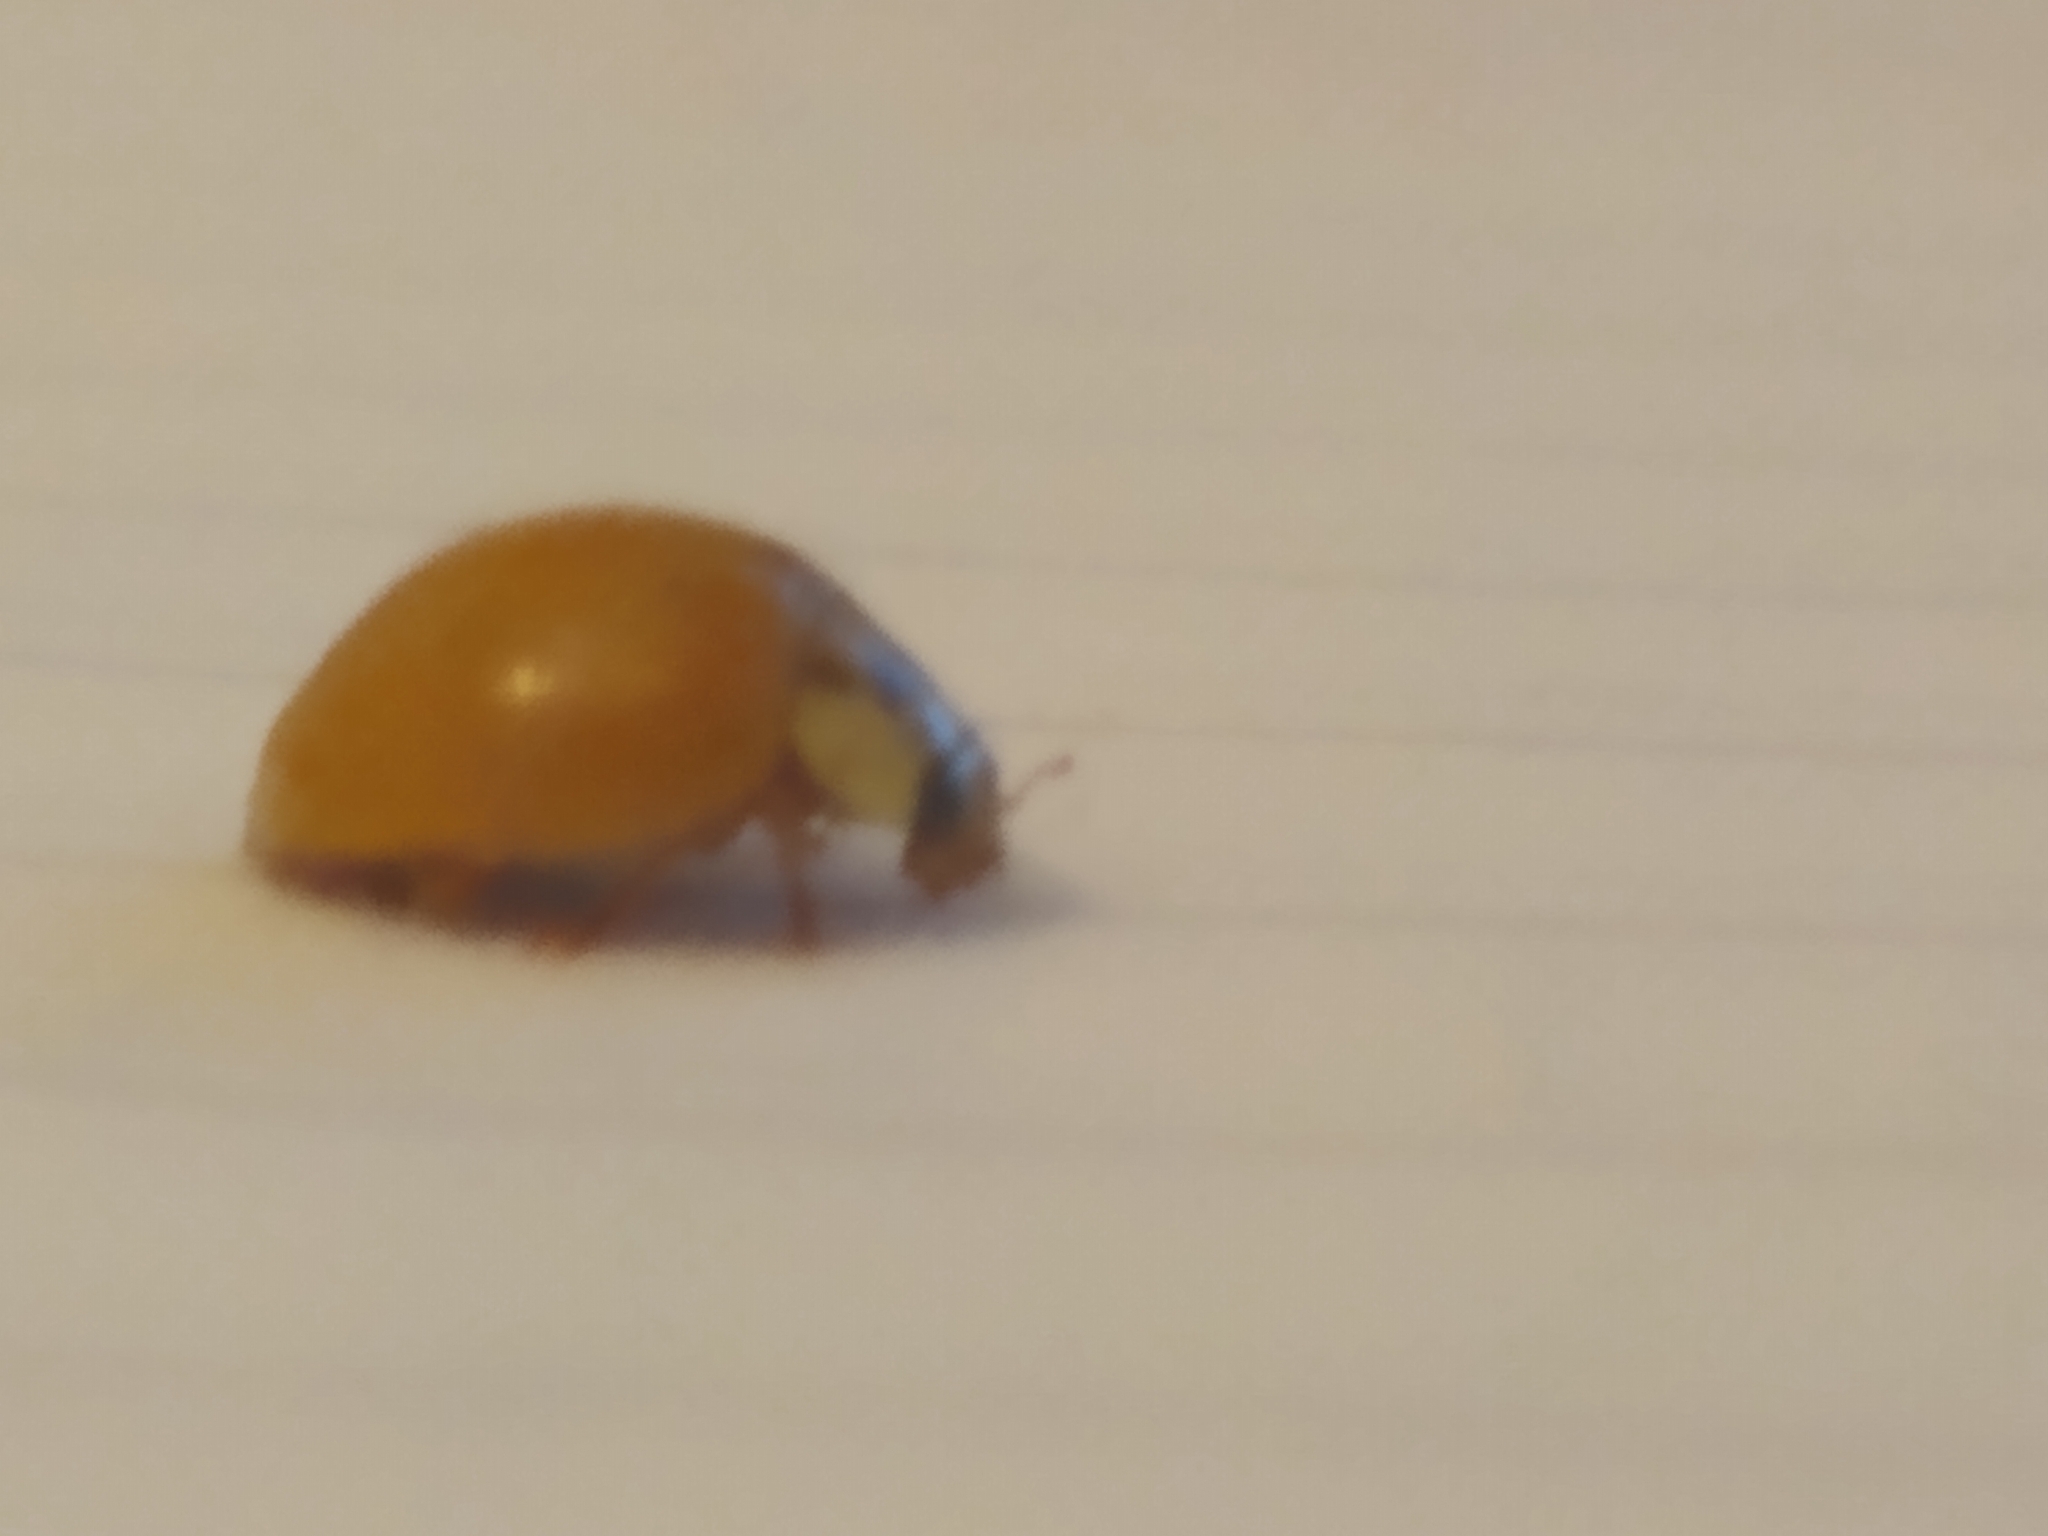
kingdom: Animalia
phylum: Arthropoda
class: Insecta
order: Coleoptera
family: Coccinellidae
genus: Harmonia
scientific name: Harmonia axyridis
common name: Harlequin ladybird
